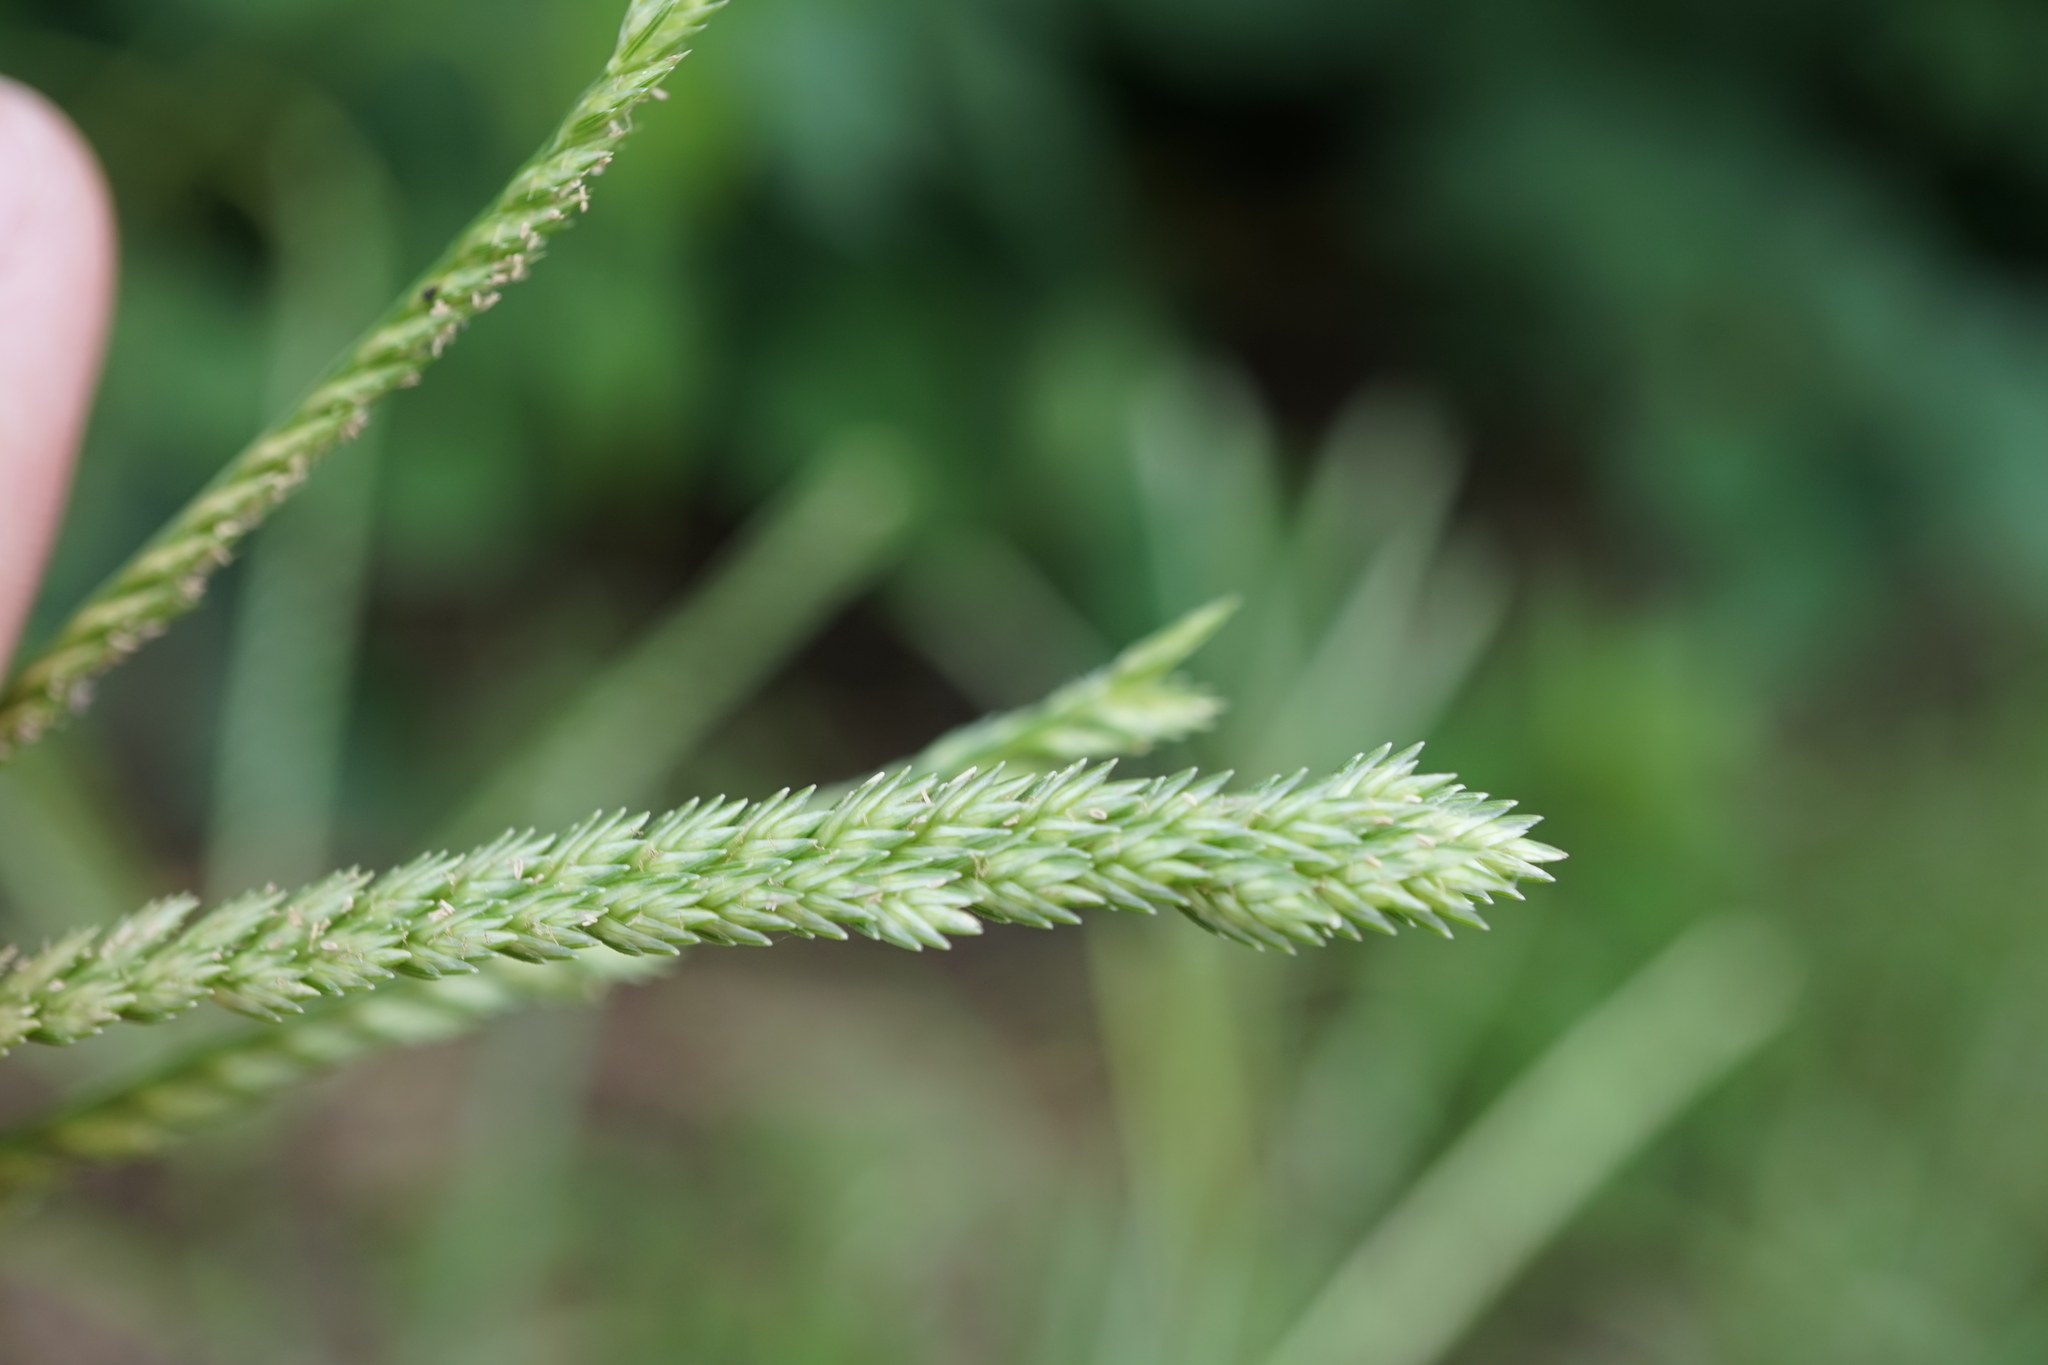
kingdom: Plantae
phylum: Tracheophyta
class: Liliopsida
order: Poales
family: Poaceae
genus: Eleusine
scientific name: Eleusine indica
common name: Yard-grass
